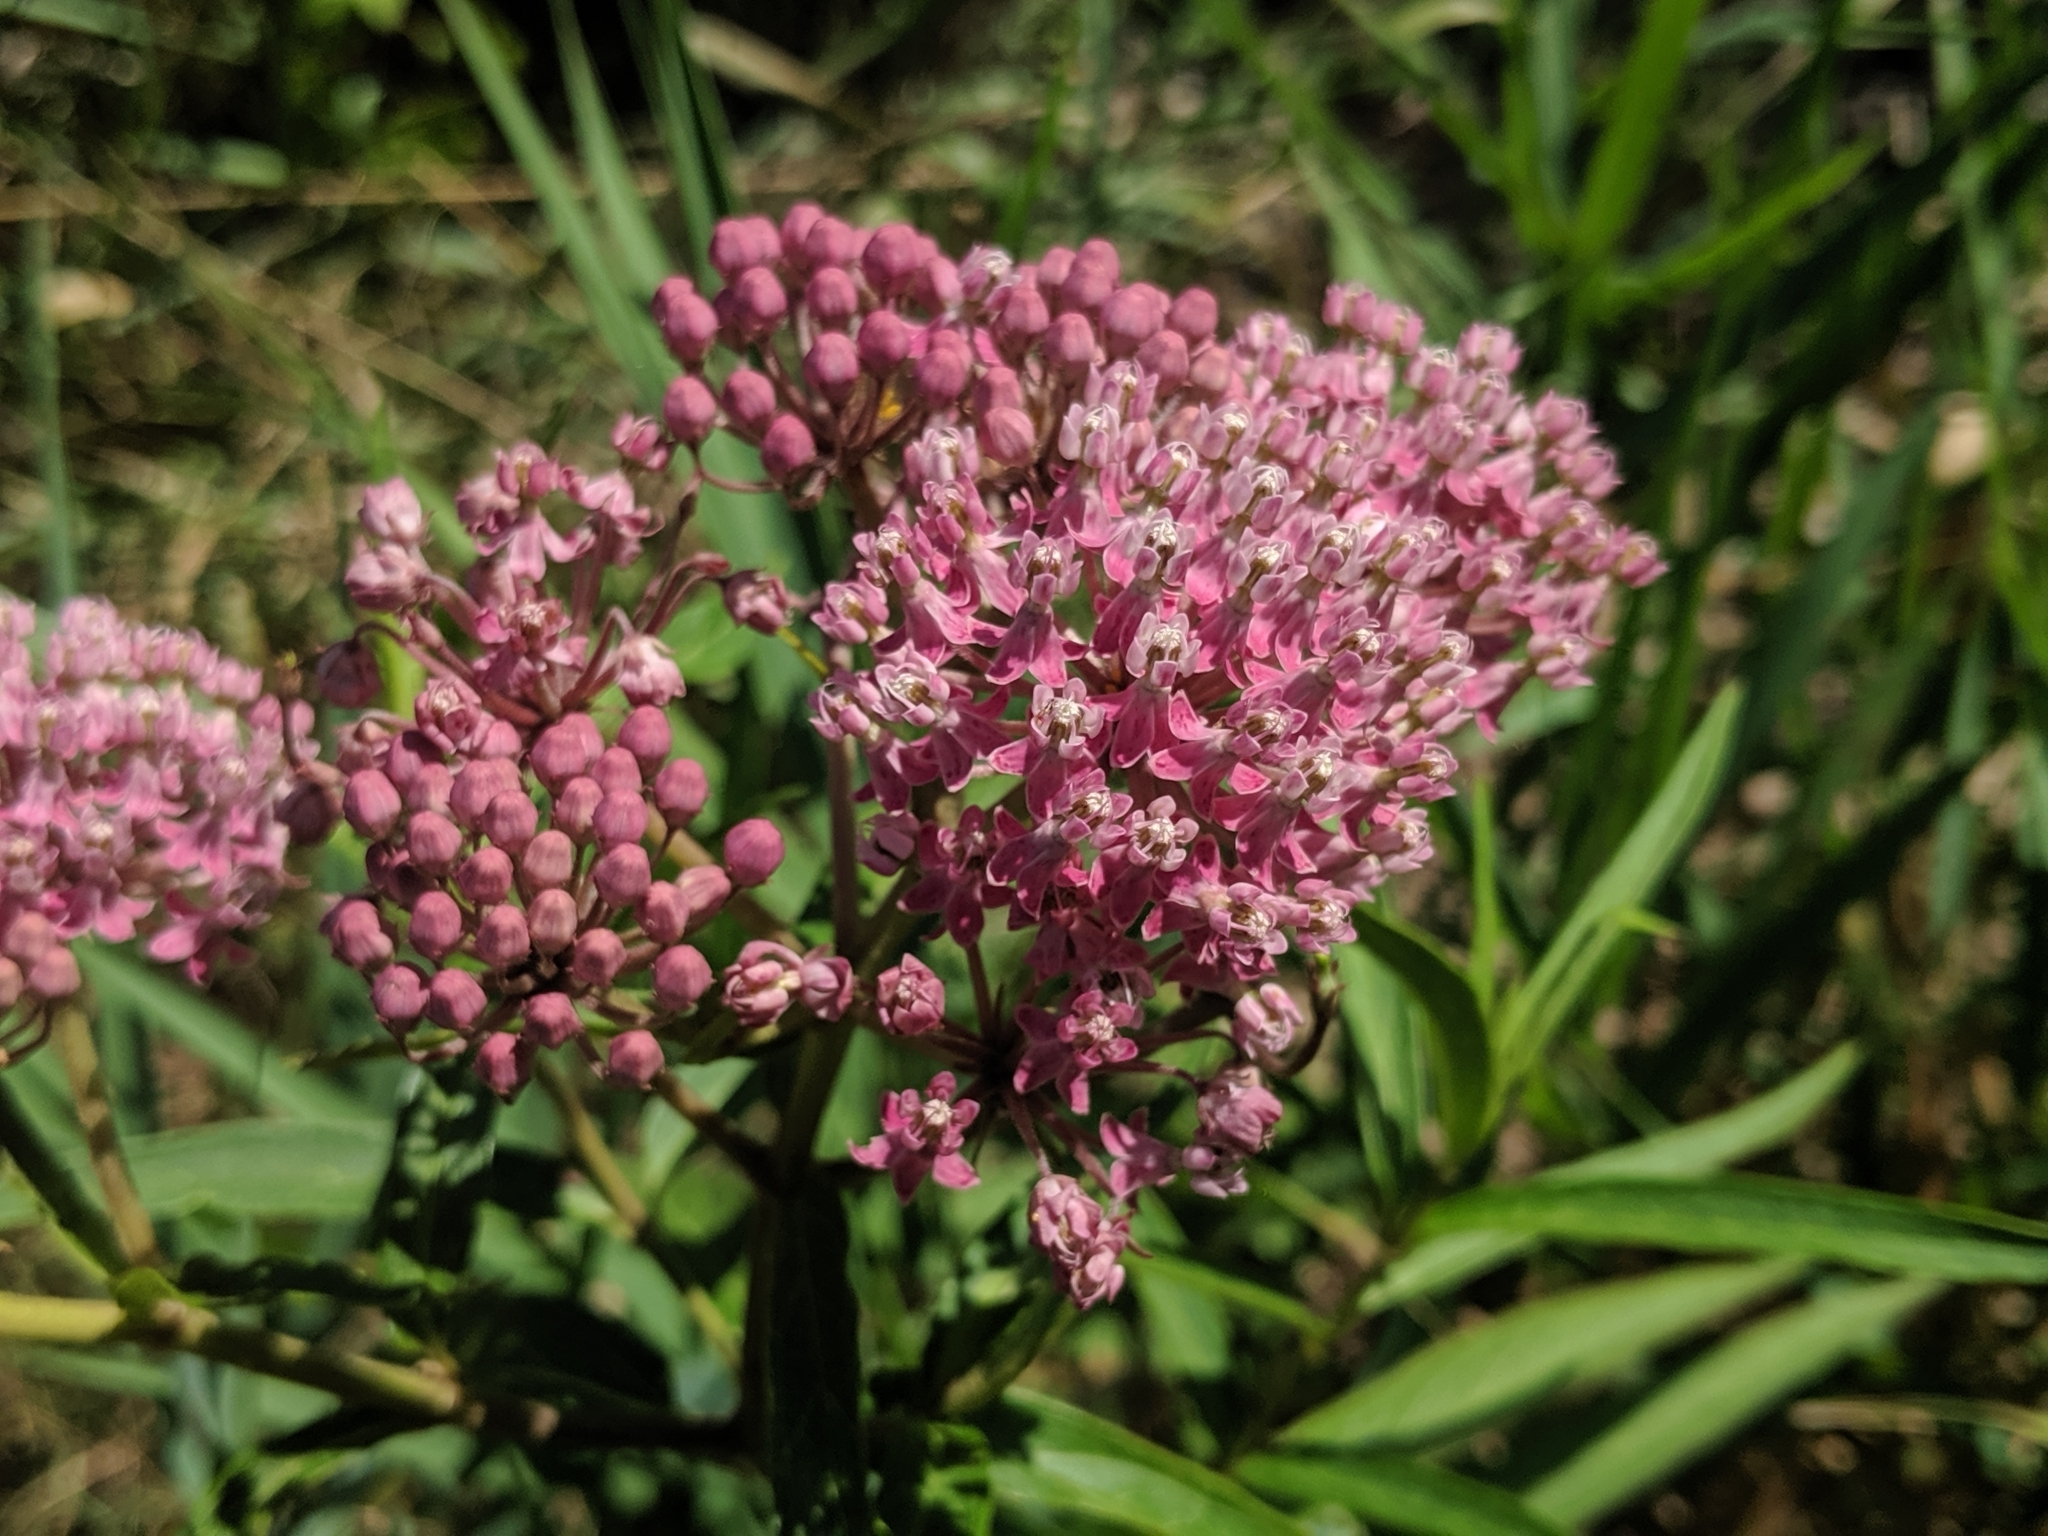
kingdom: Plantae
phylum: Tracheophyta
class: Magnoliopsida
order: Gentianales
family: Apocynaceae
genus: Asclepias
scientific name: Asclepias incarnata
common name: Swamp milkweed
